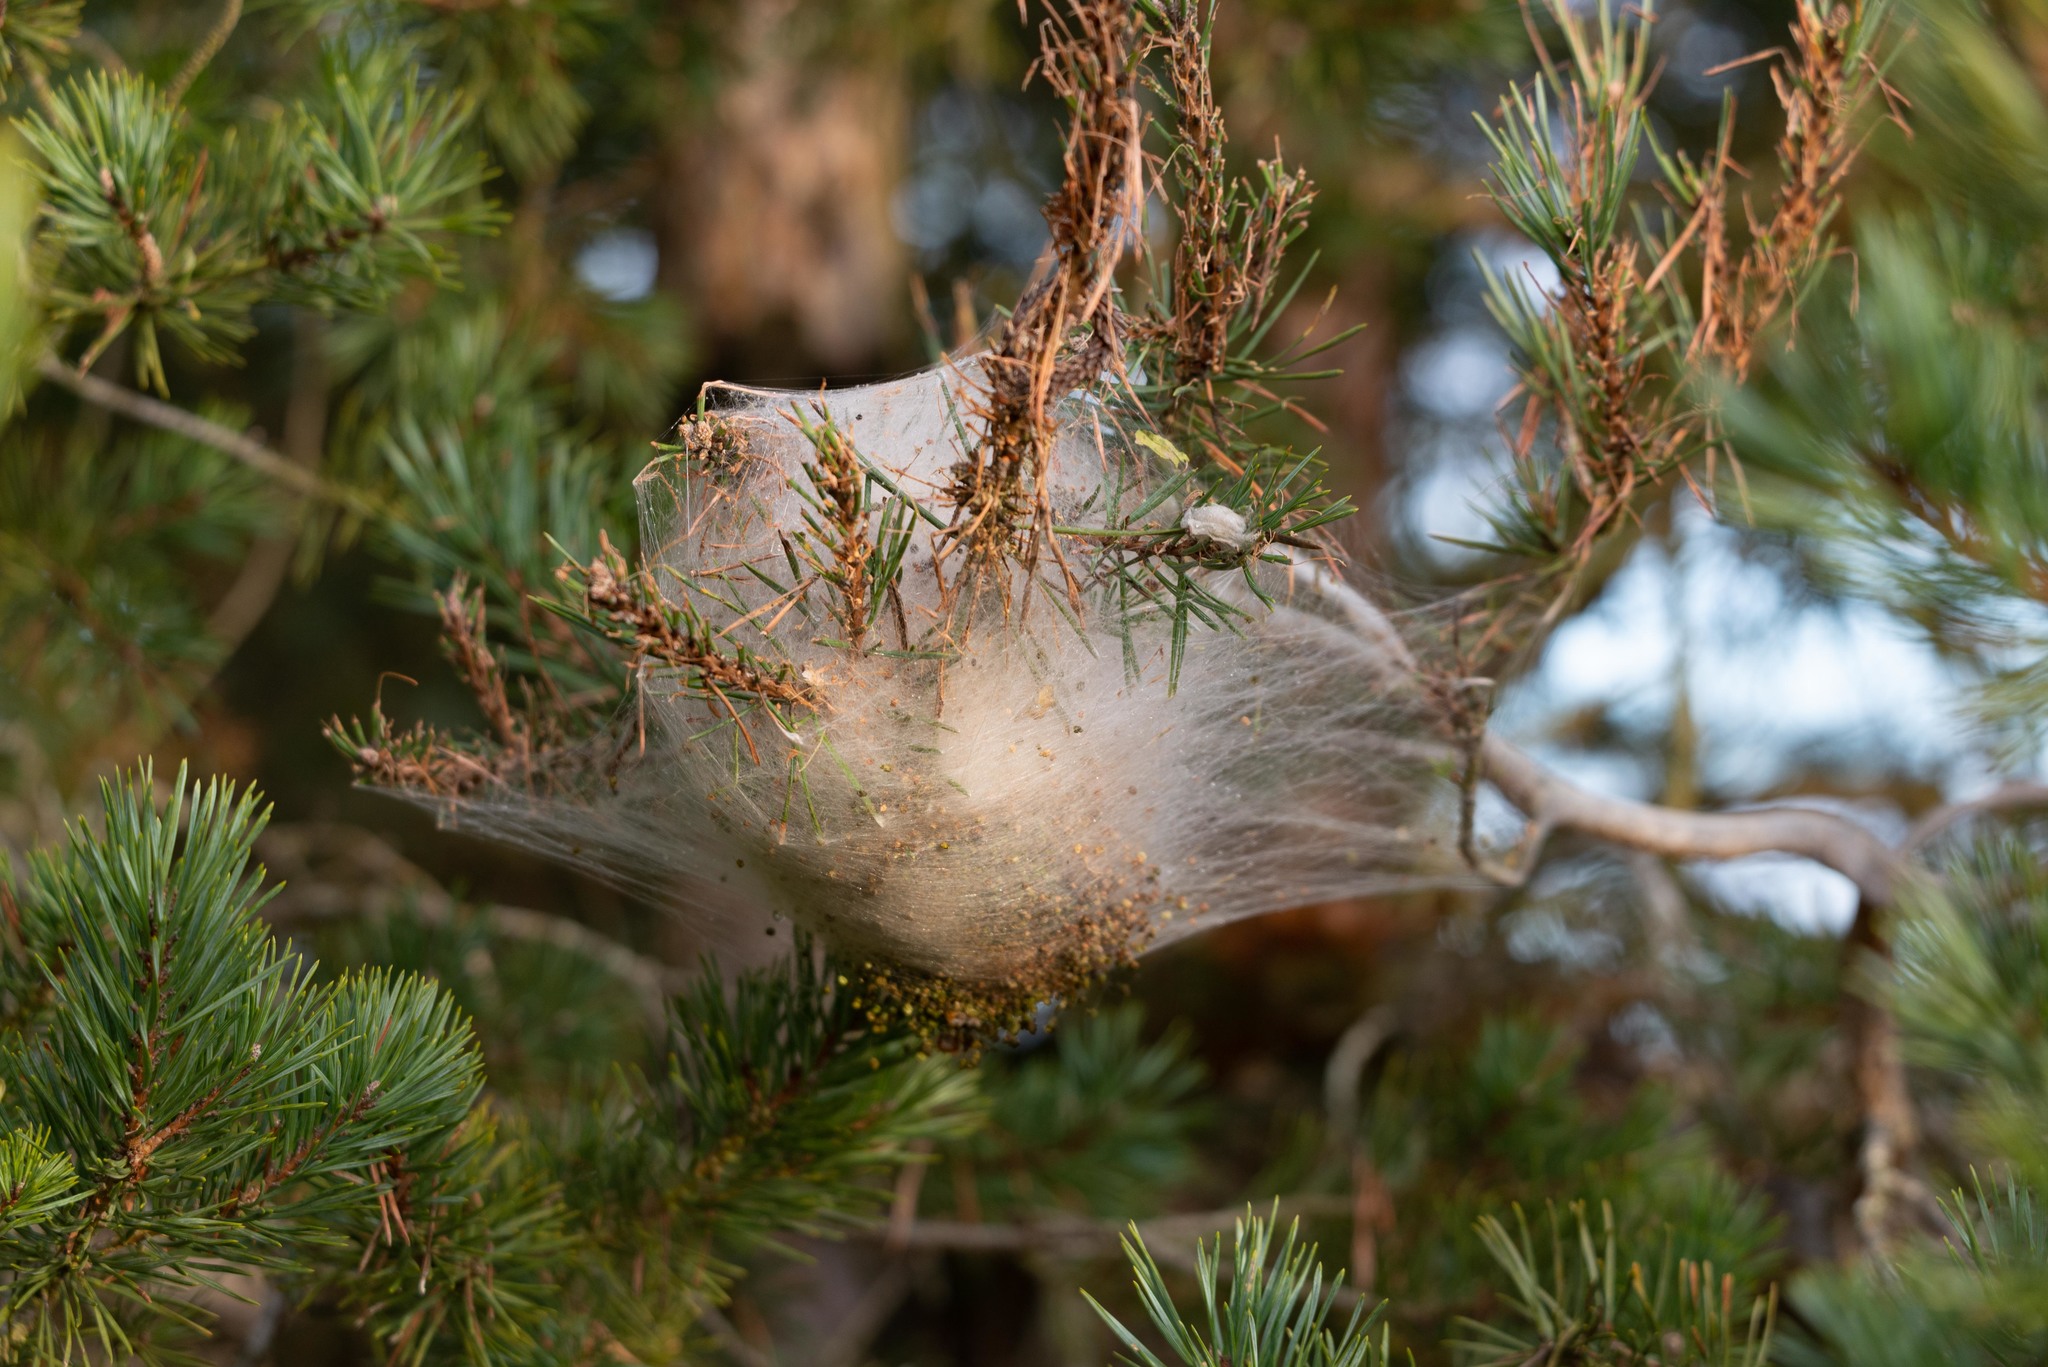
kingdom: Animalia
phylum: Arthropoda
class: Insecta
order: Lepidoptera
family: Notodontidae
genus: Thaumetopoea
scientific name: Thaumetopoea pityocampa
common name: Pine processionary
